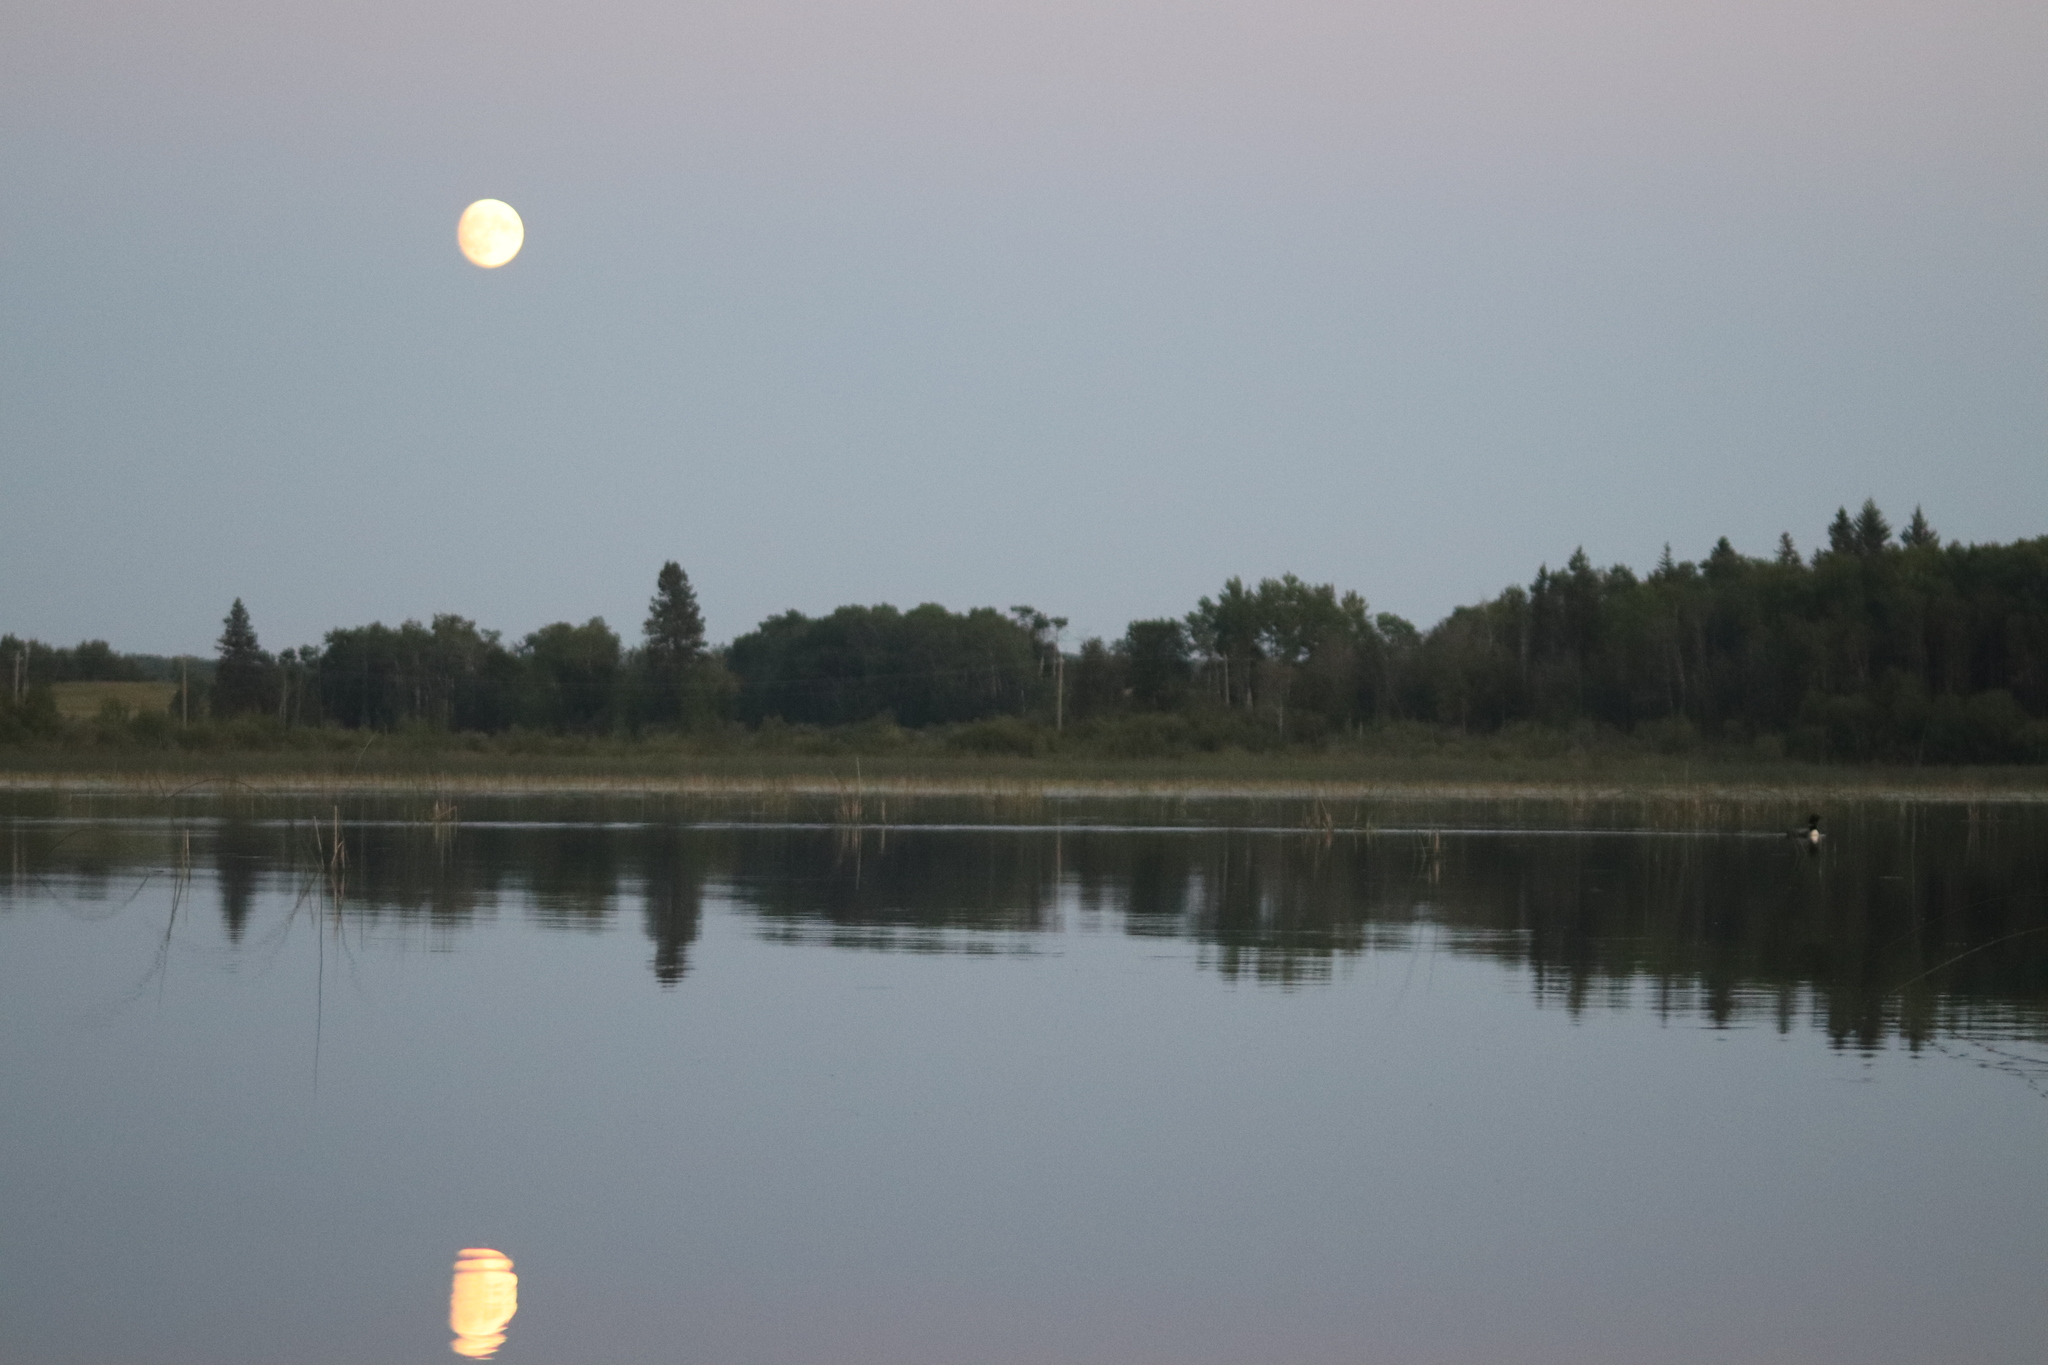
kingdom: Animalia
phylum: Chordata
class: Aves
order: Gaviiformes
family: Gaviidae
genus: Gavia
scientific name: Gavia immer
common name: Common loon
